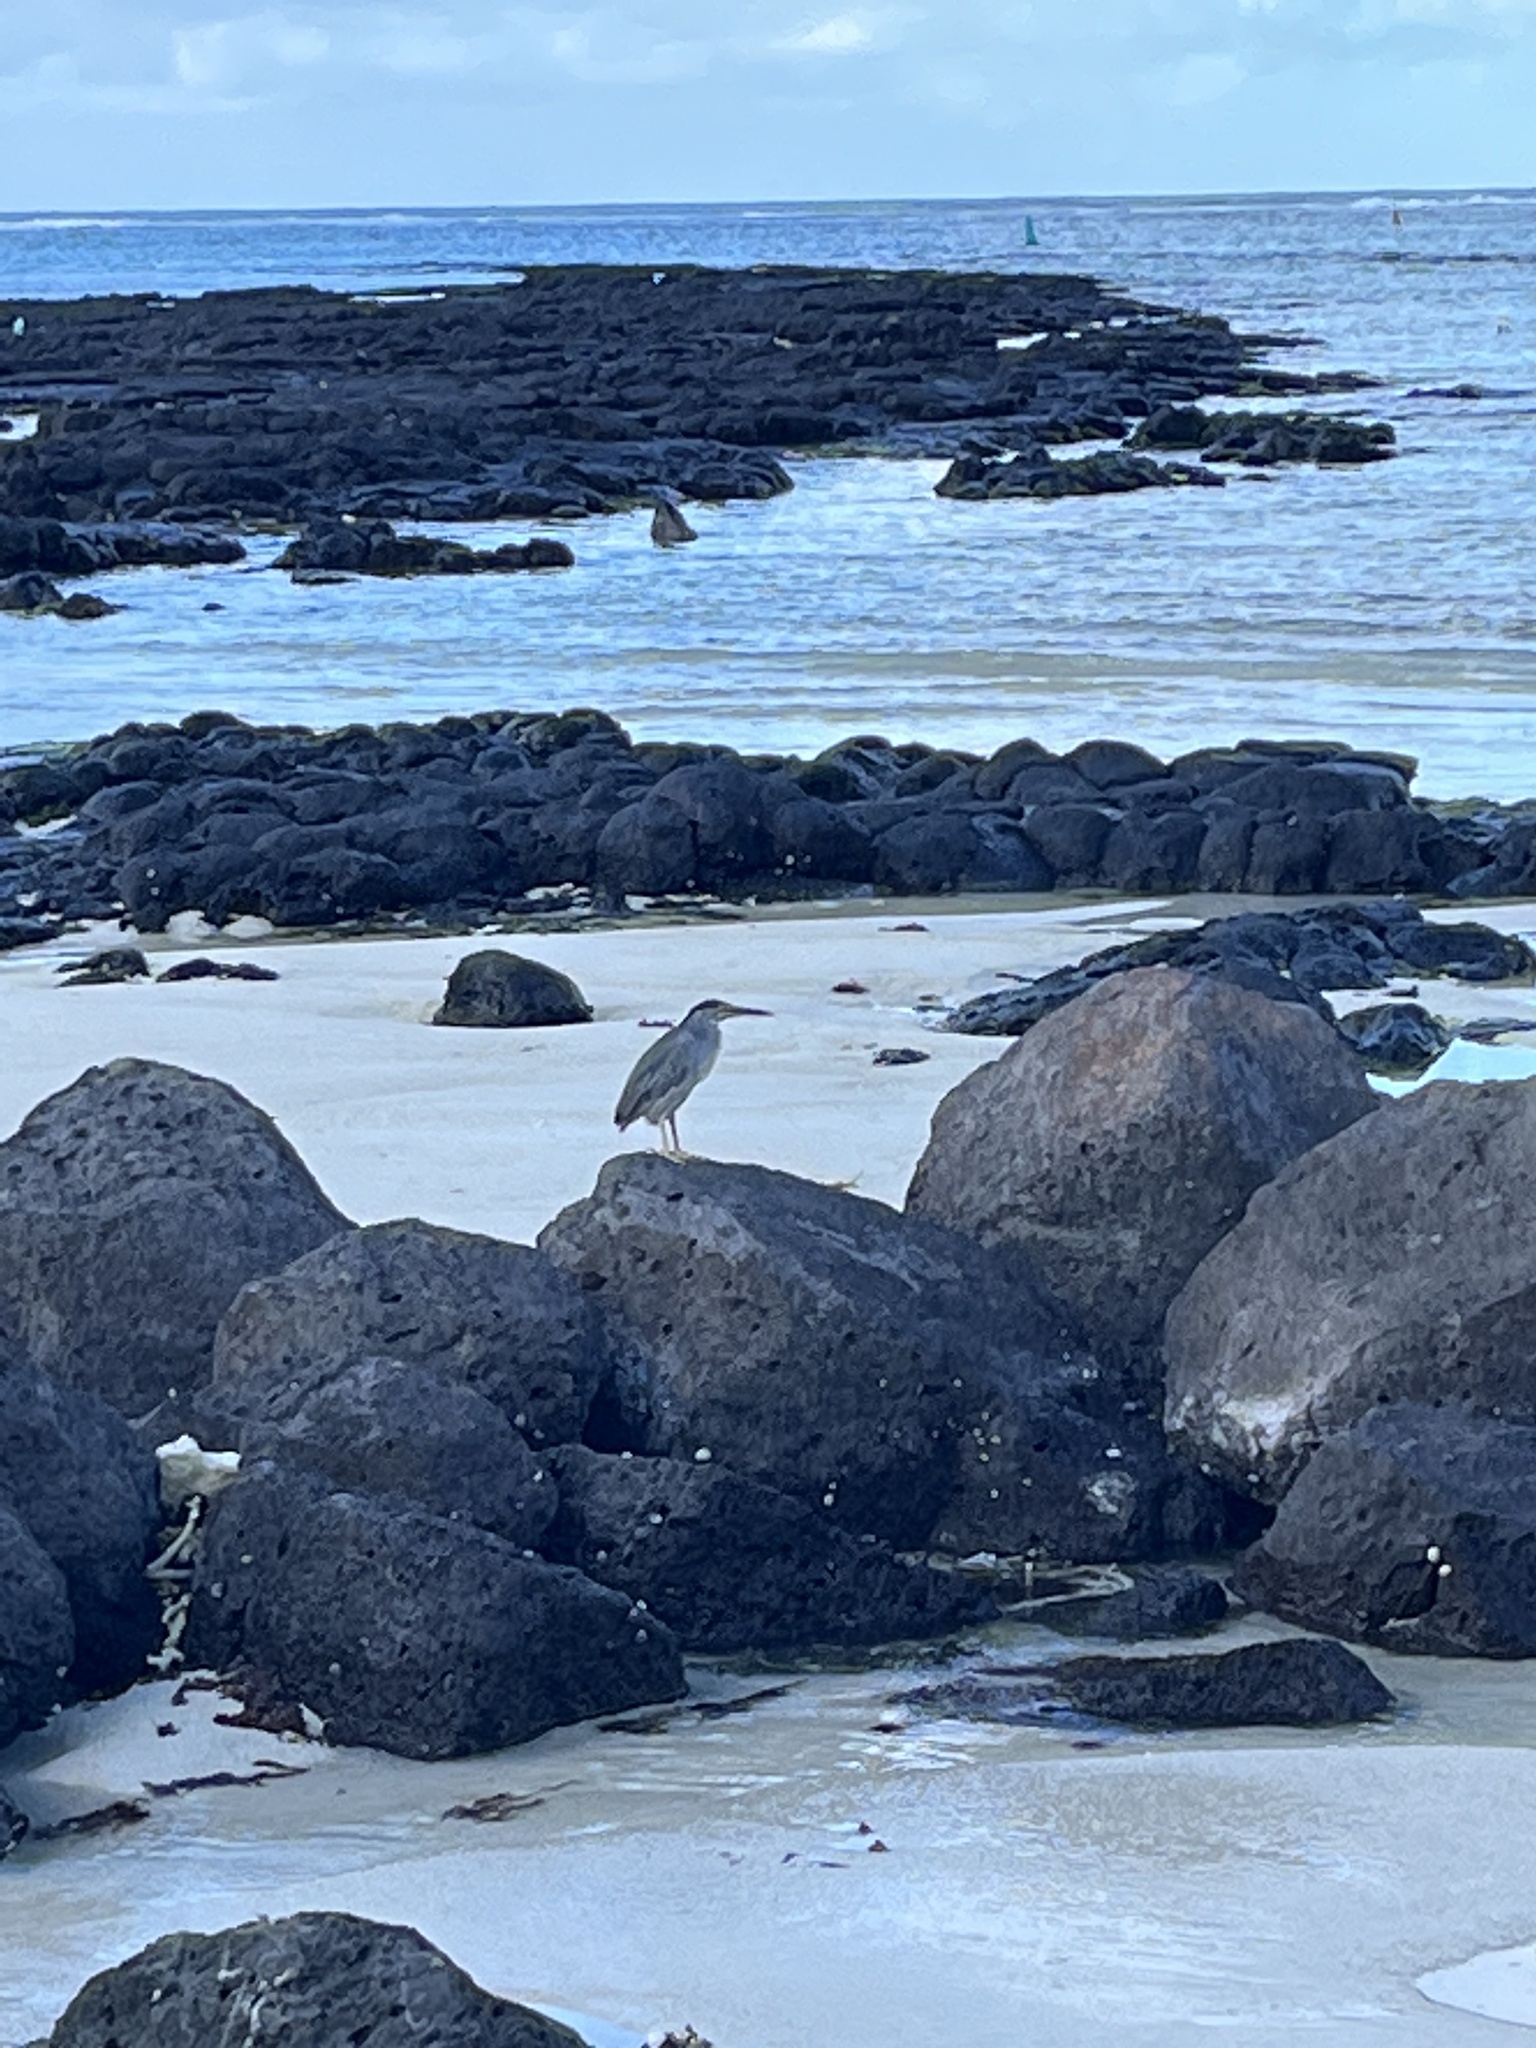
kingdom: Animalia
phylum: Chordata
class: Aves
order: Pelecaniformes
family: Ardeidae
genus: Butorides
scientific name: Butorides striata
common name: Striated heron
